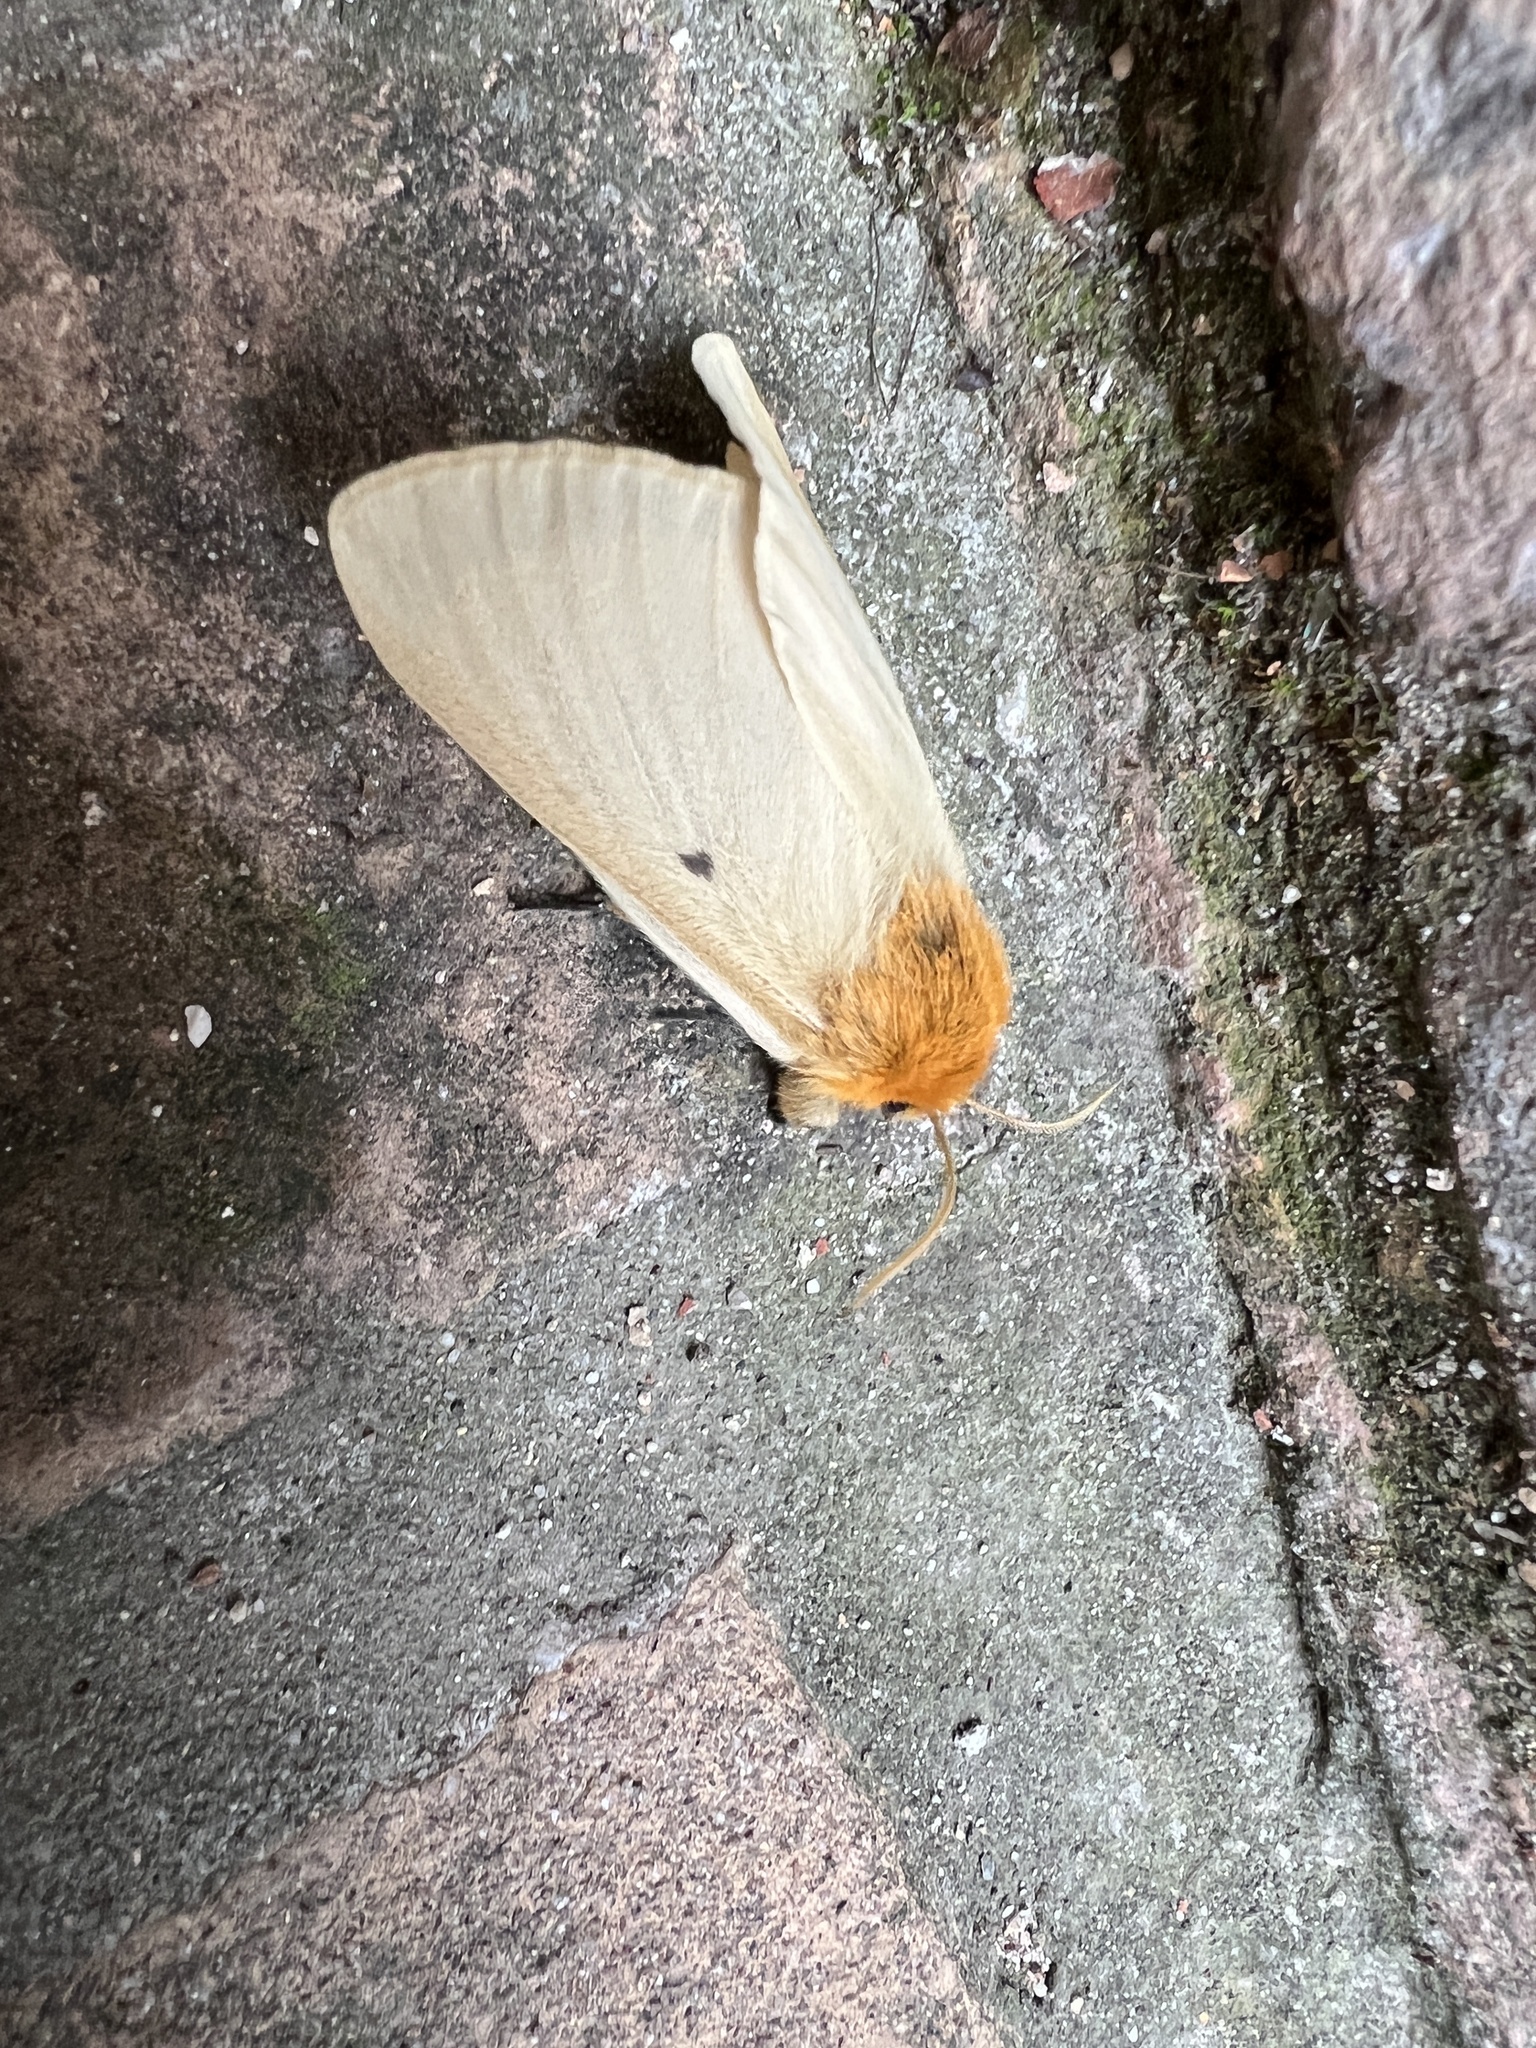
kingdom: Animalia
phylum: Arthropoda
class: Insecta
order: Lepidoptera
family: Brahmaeidae
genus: Lemonia
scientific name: Lemonia taraxaci
